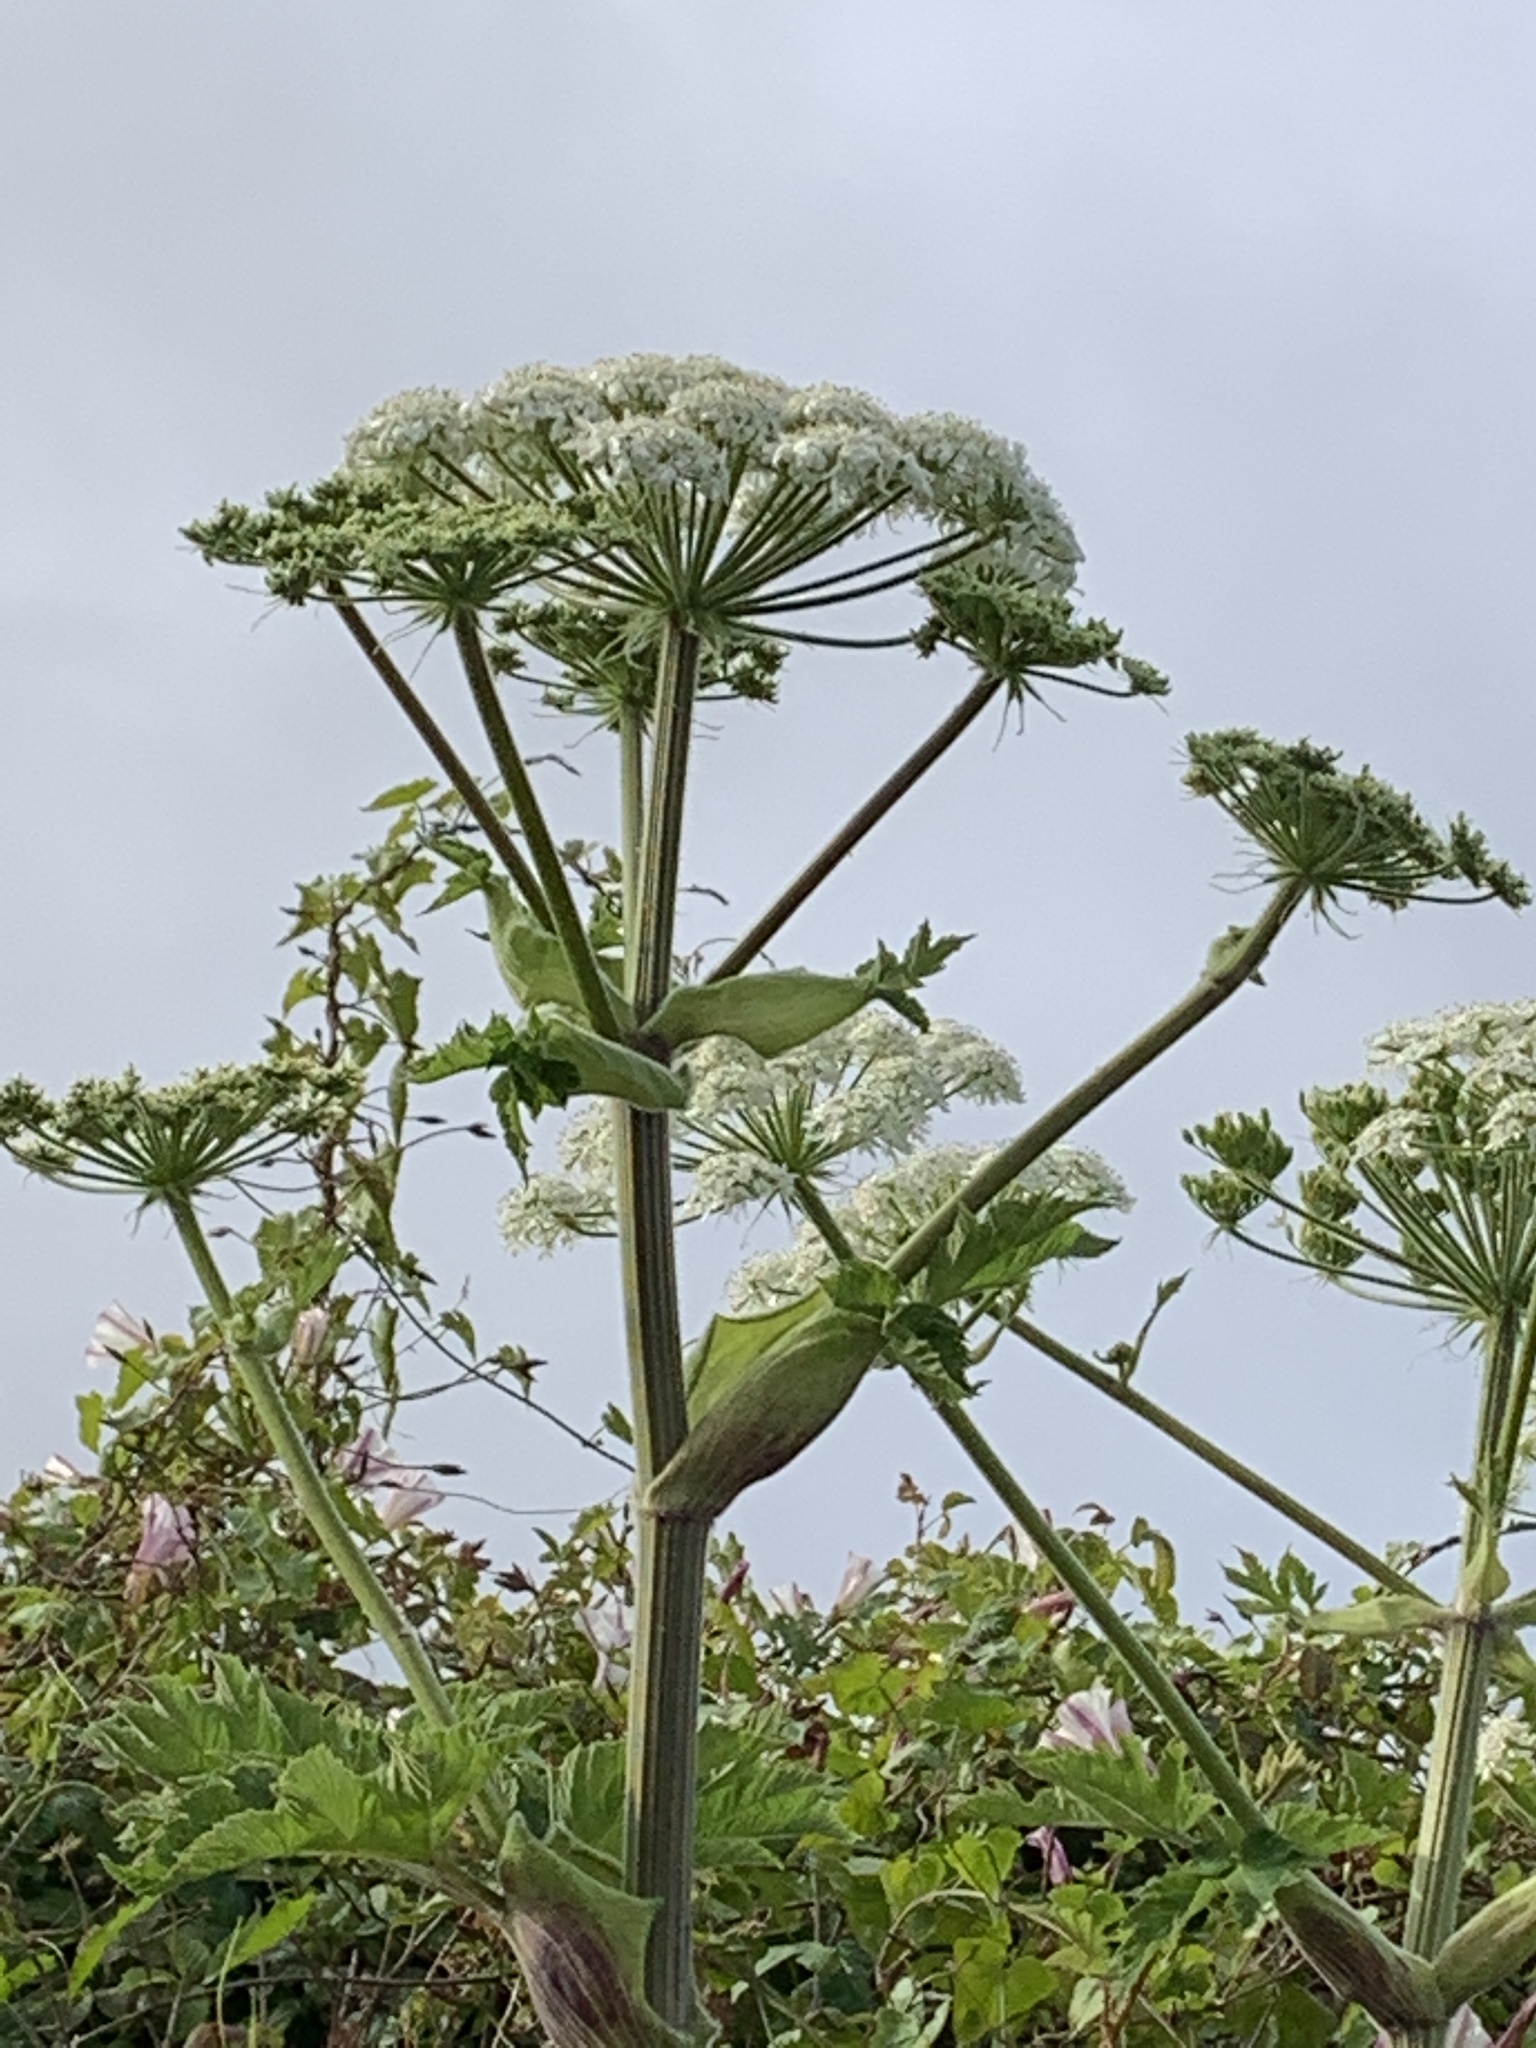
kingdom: Plantae
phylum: Tracheophyta
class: Magnoliopsida
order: Apiales
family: Apiaceae
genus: Heracleum
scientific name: Heracleum maximum
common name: American cow parsnip
